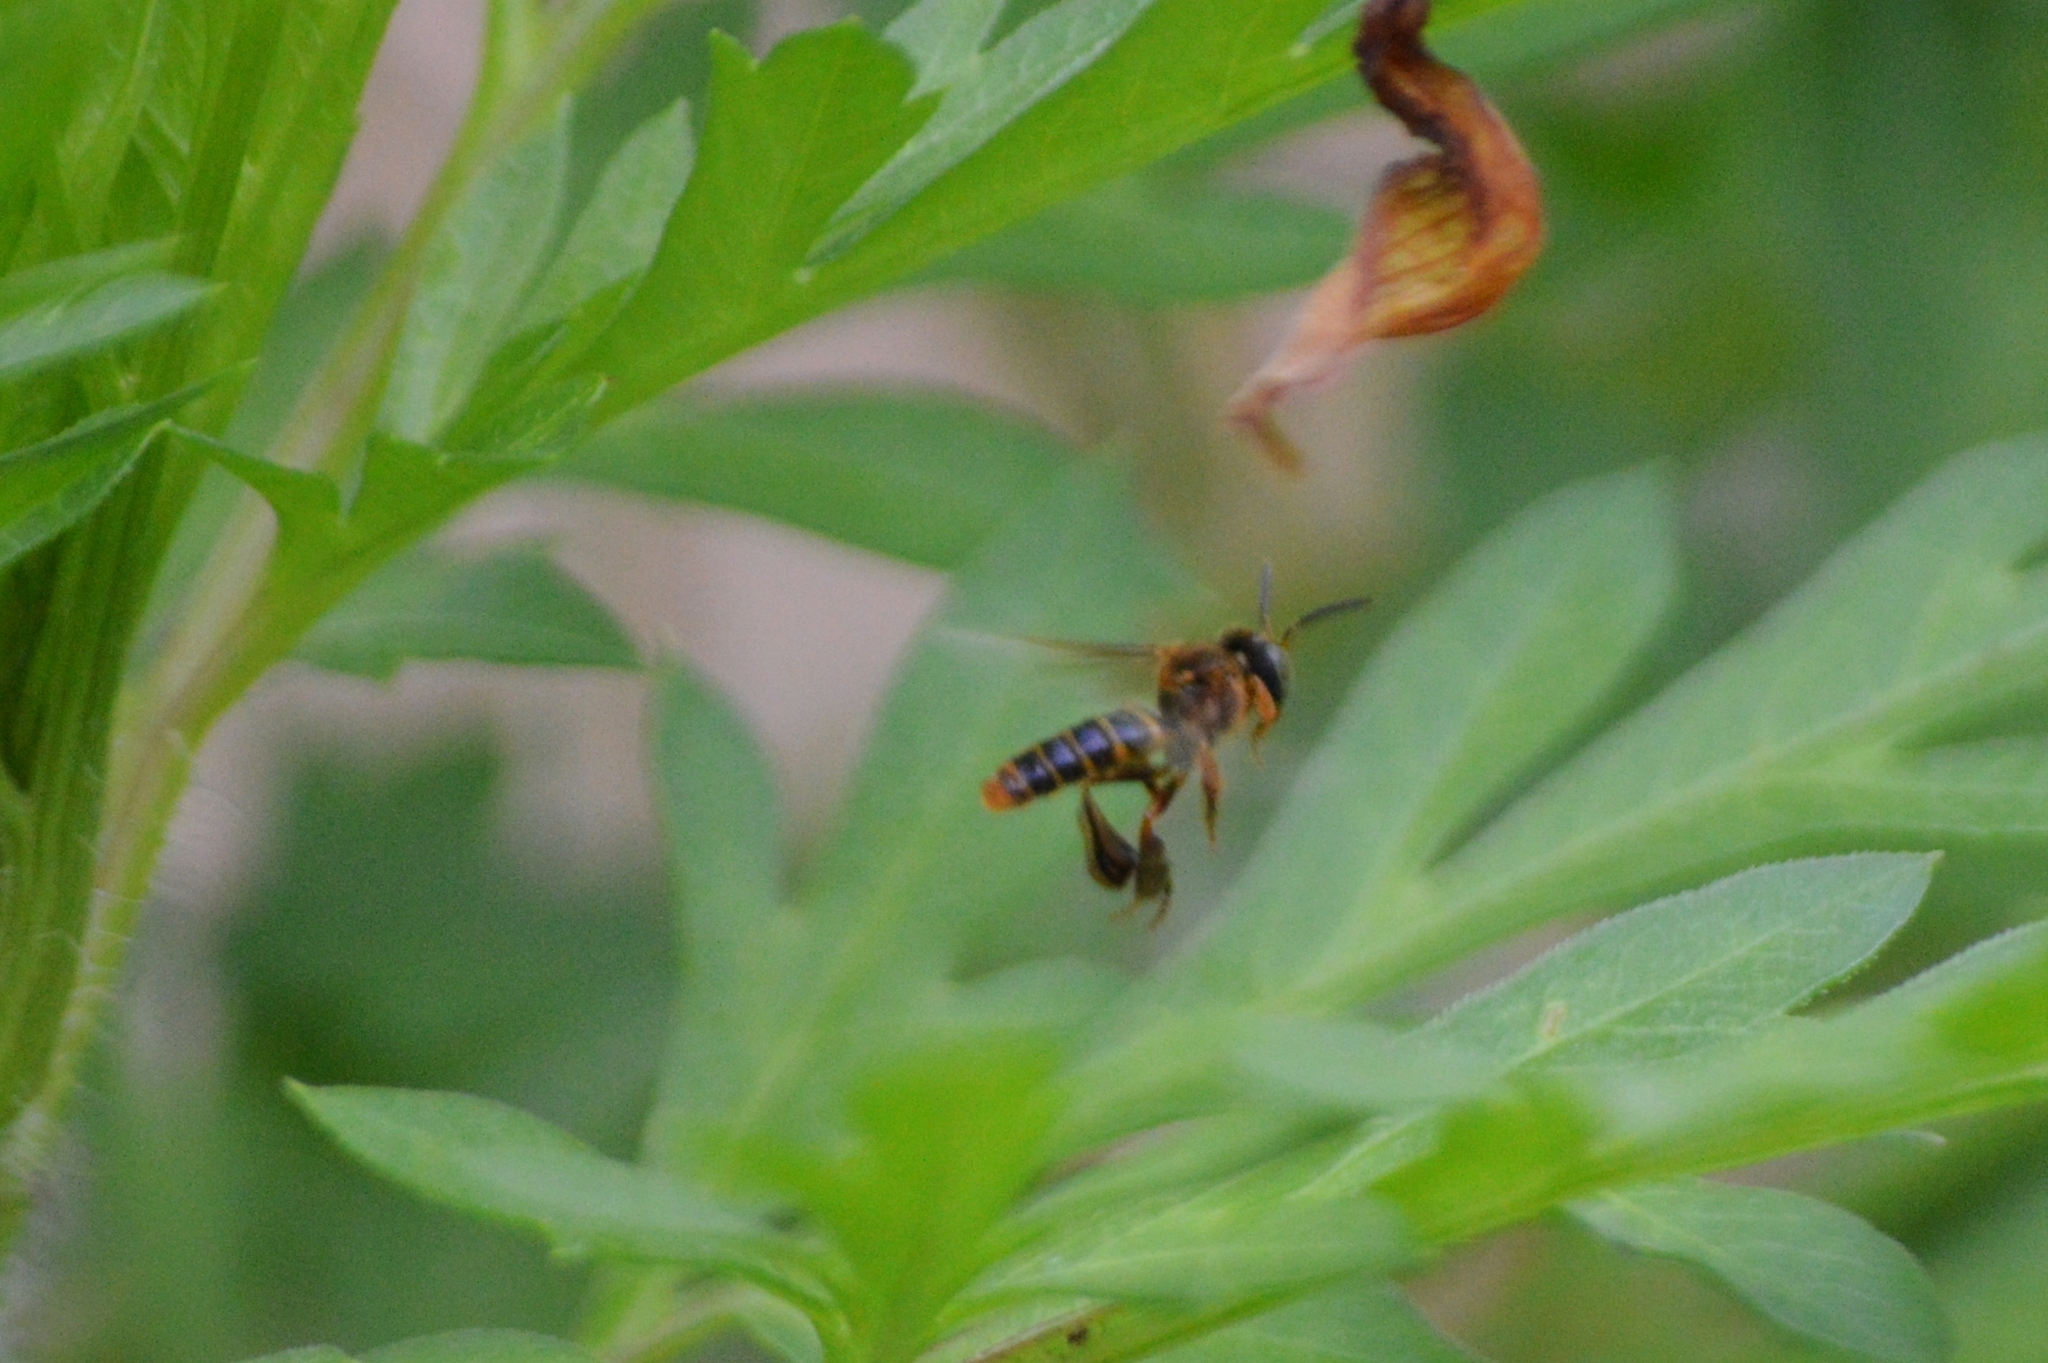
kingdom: Animalia
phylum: Arthropoda
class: Insecta
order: Hymenoptera
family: Apidae
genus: Tetragona
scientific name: Tetragona clavipes
